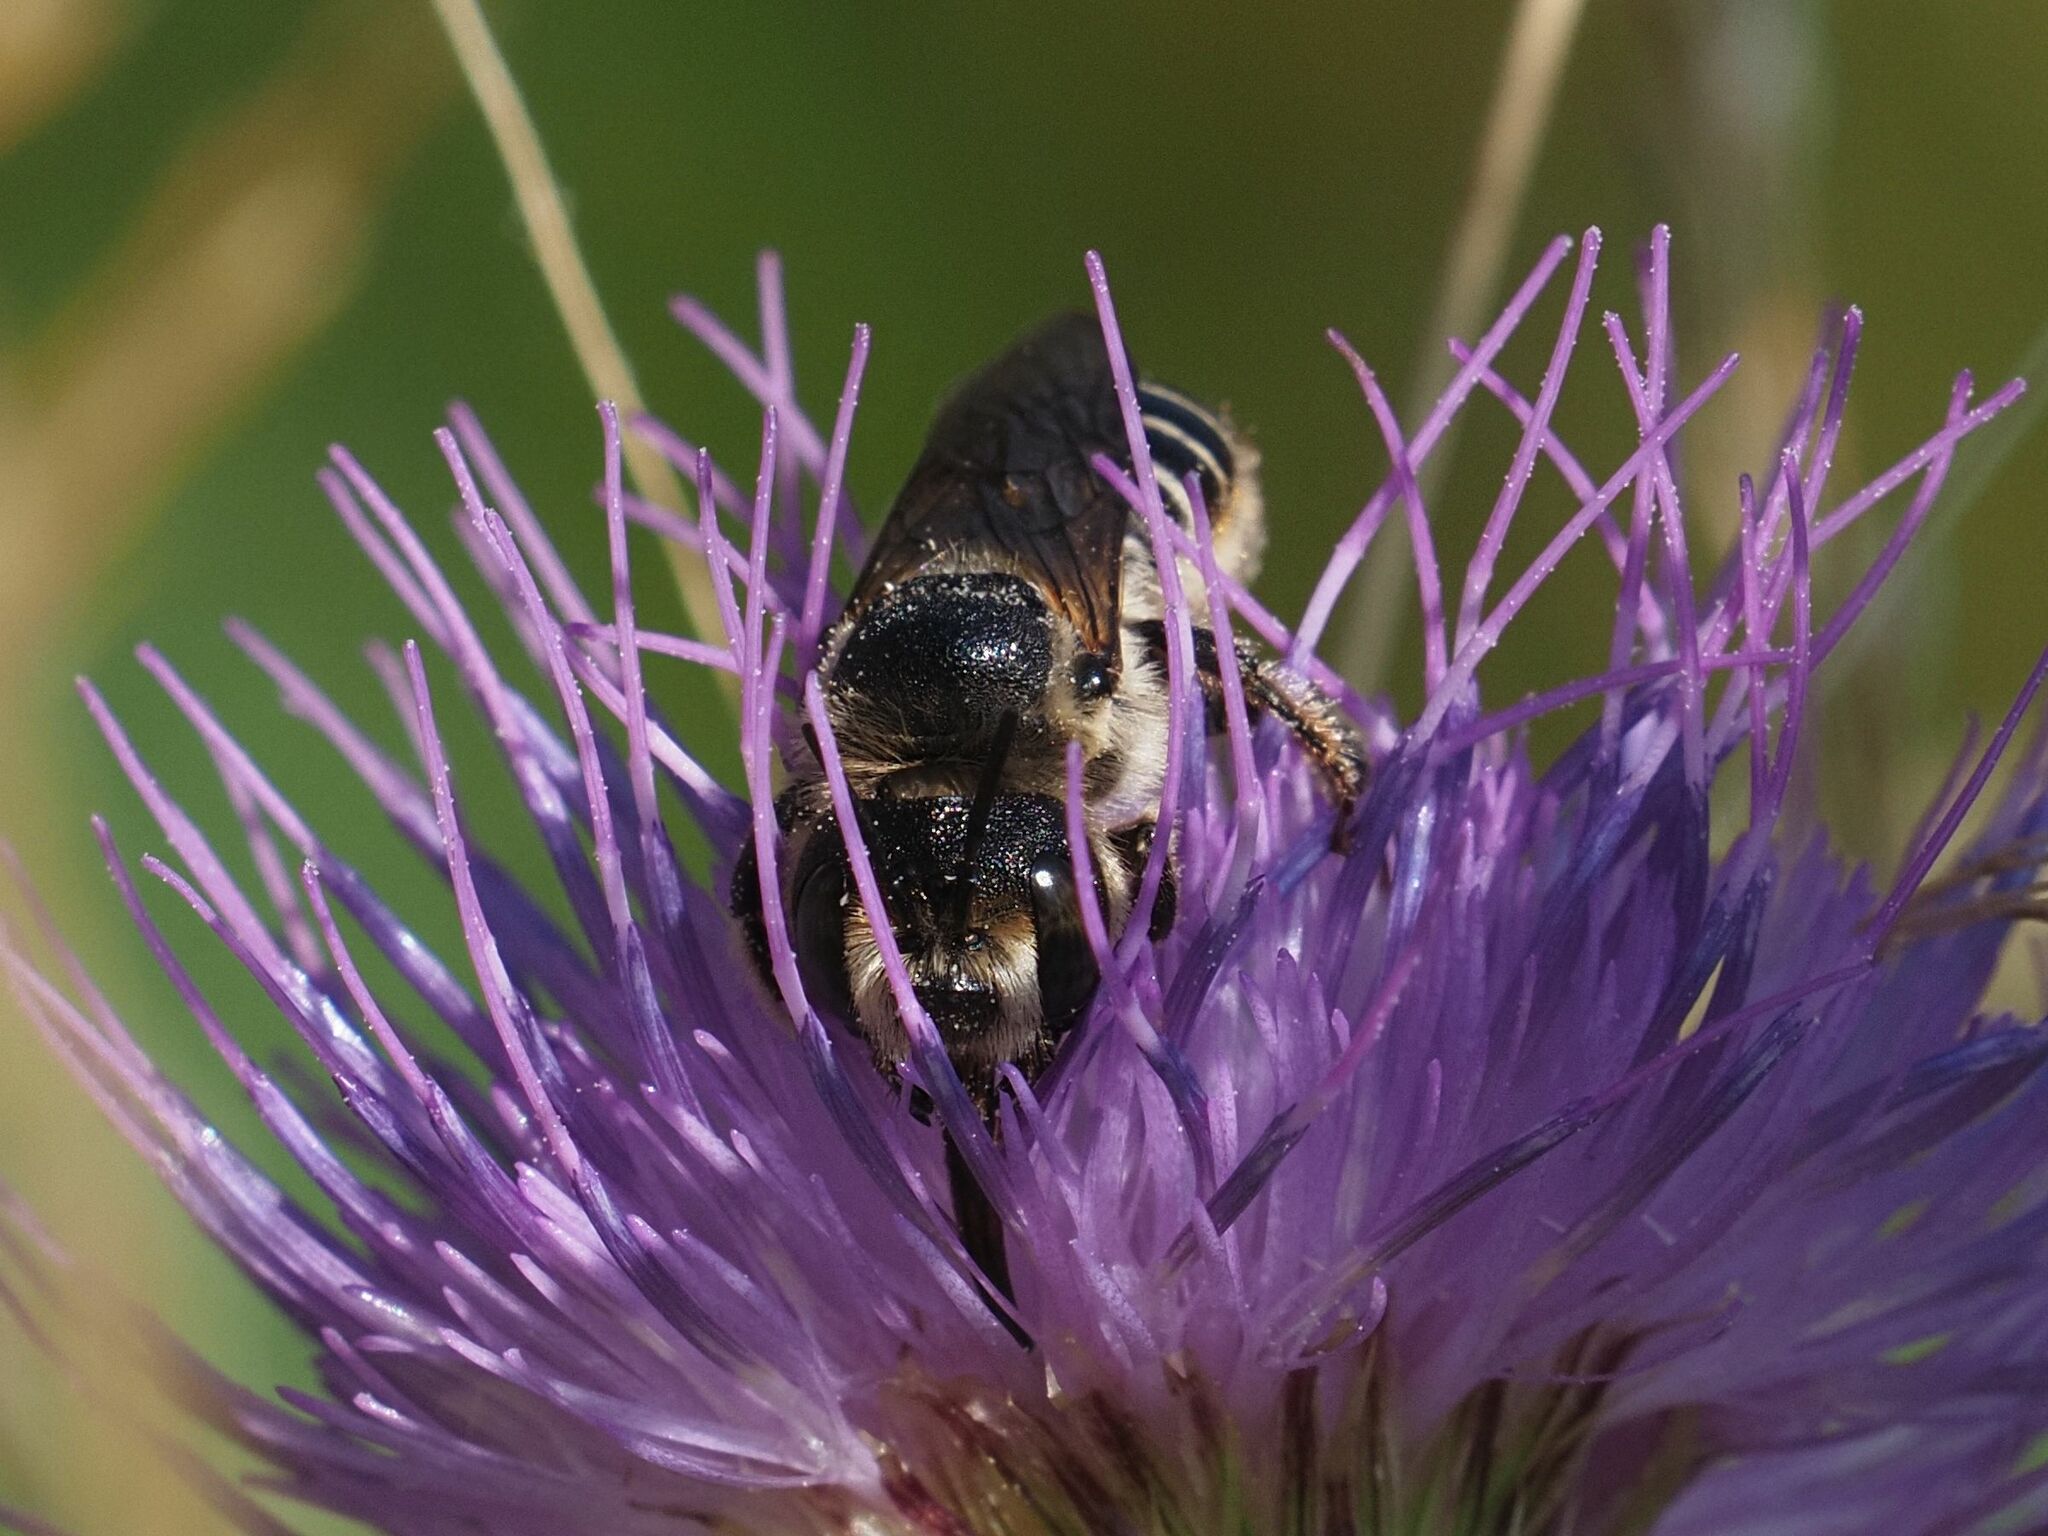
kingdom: Animalia
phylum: Arthropoda
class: Insecta
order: Hymenoptera
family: Megachilidae
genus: Lithurgus
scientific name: Lithurgus cornutus
